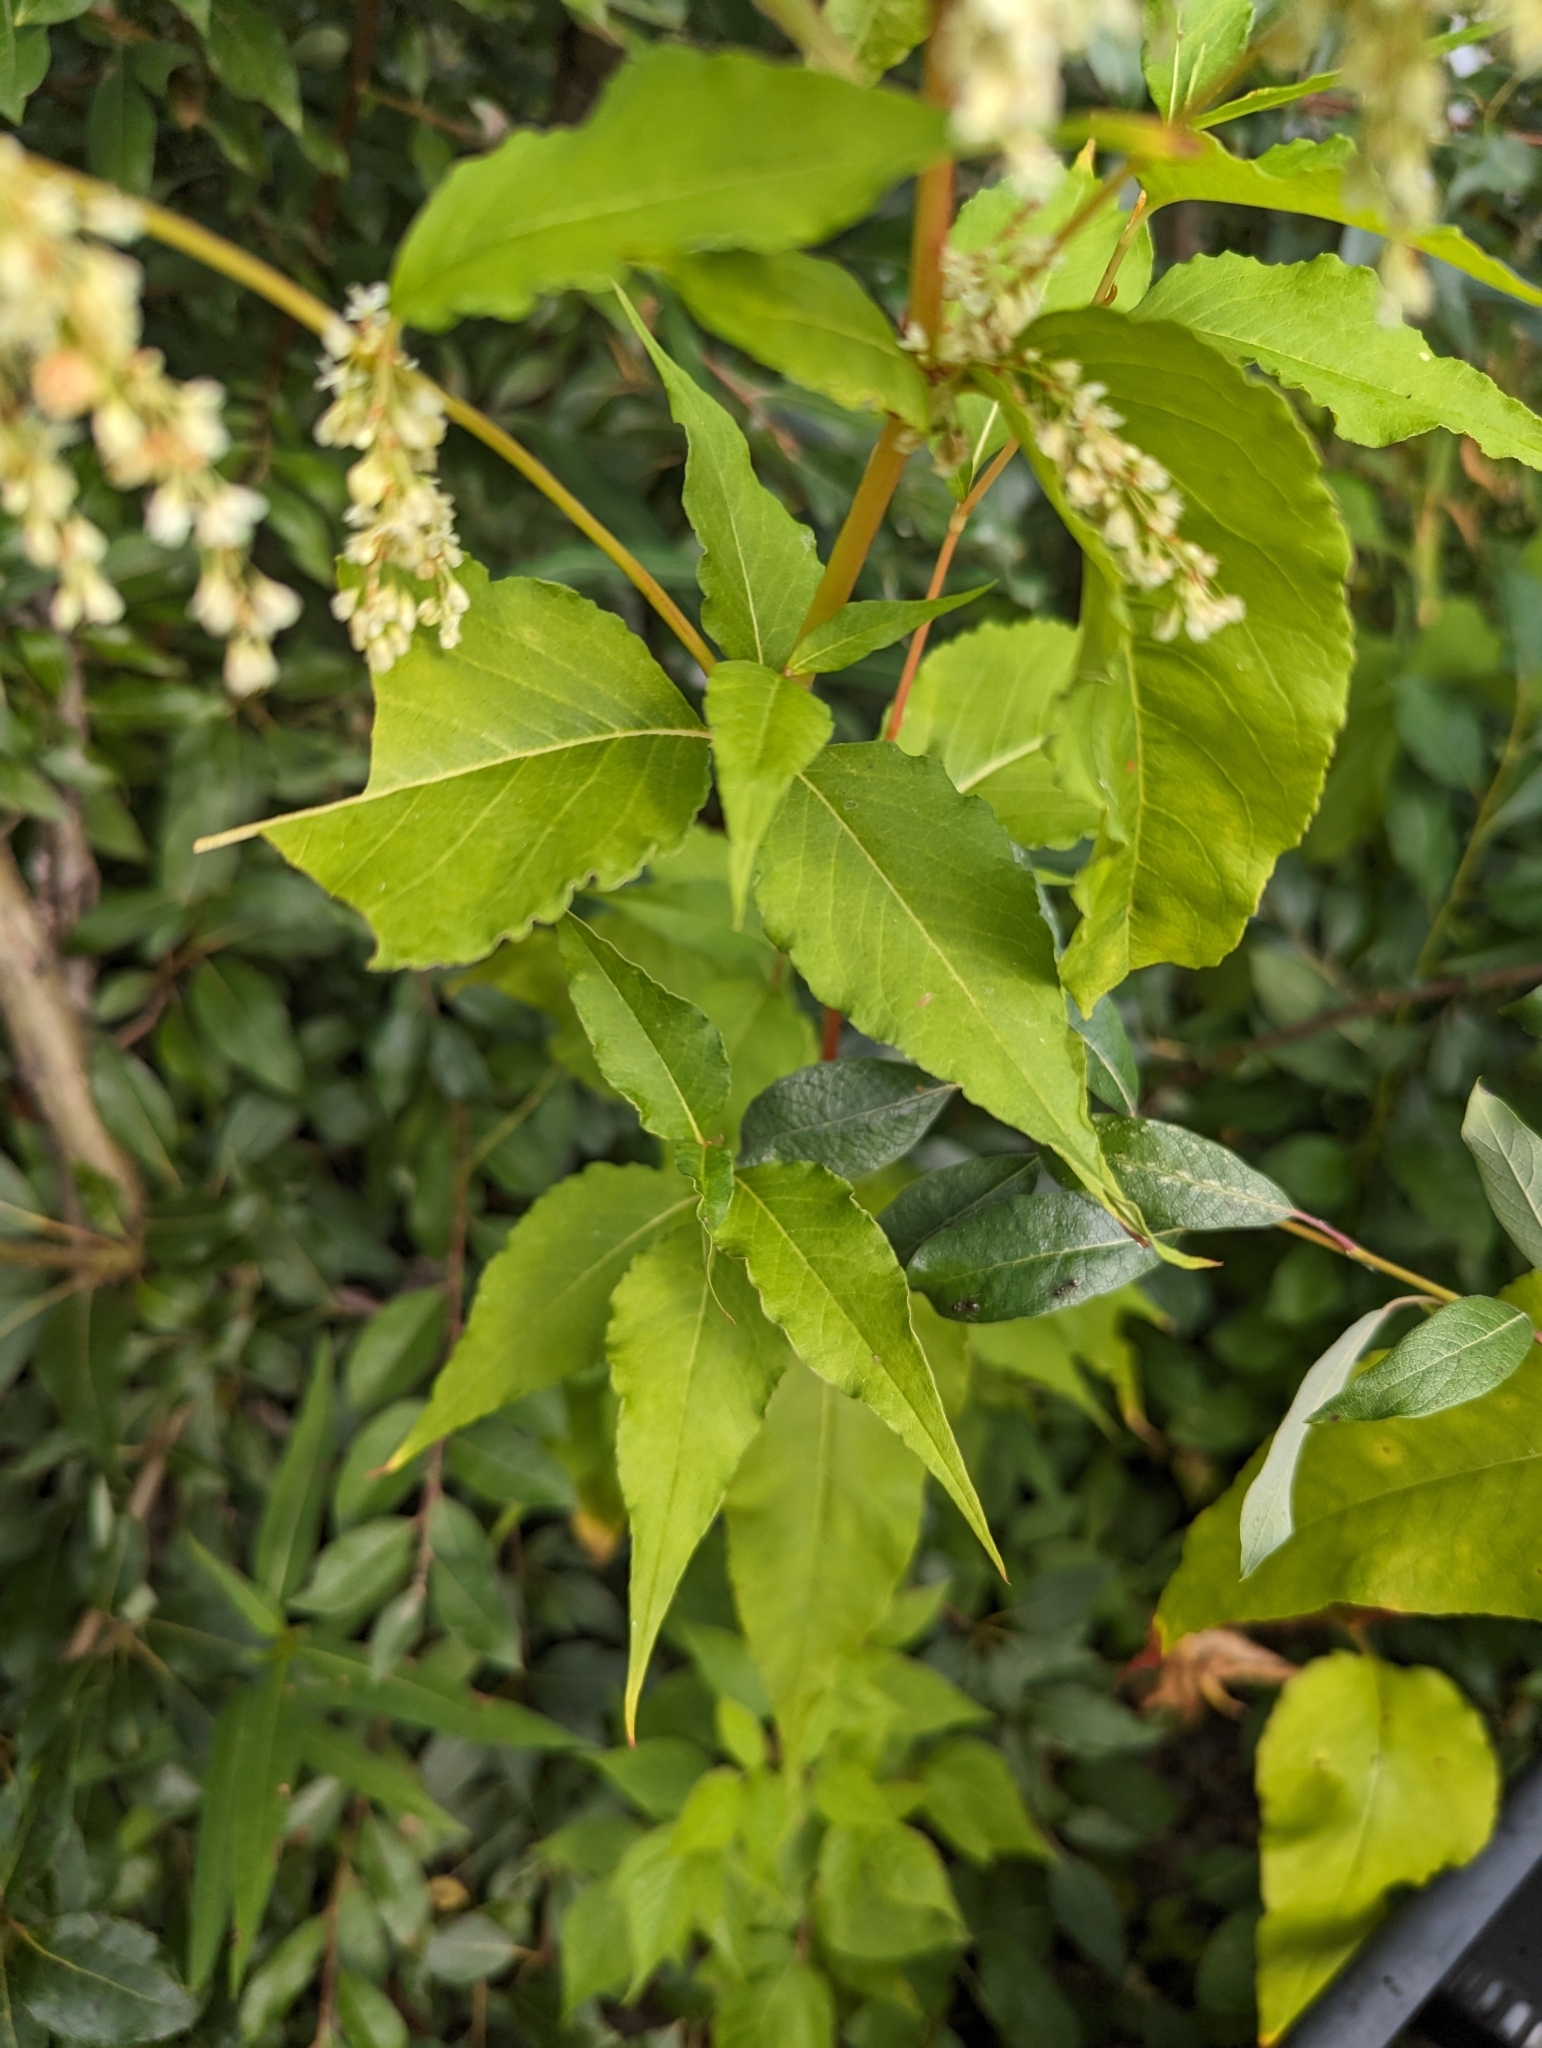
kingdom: Plantae
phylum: Tracheophyta
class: Magnoliopsida
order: Caryophyllales
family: Polygonaceae
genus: Koenigia
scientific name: Koenigia lapathifolia
